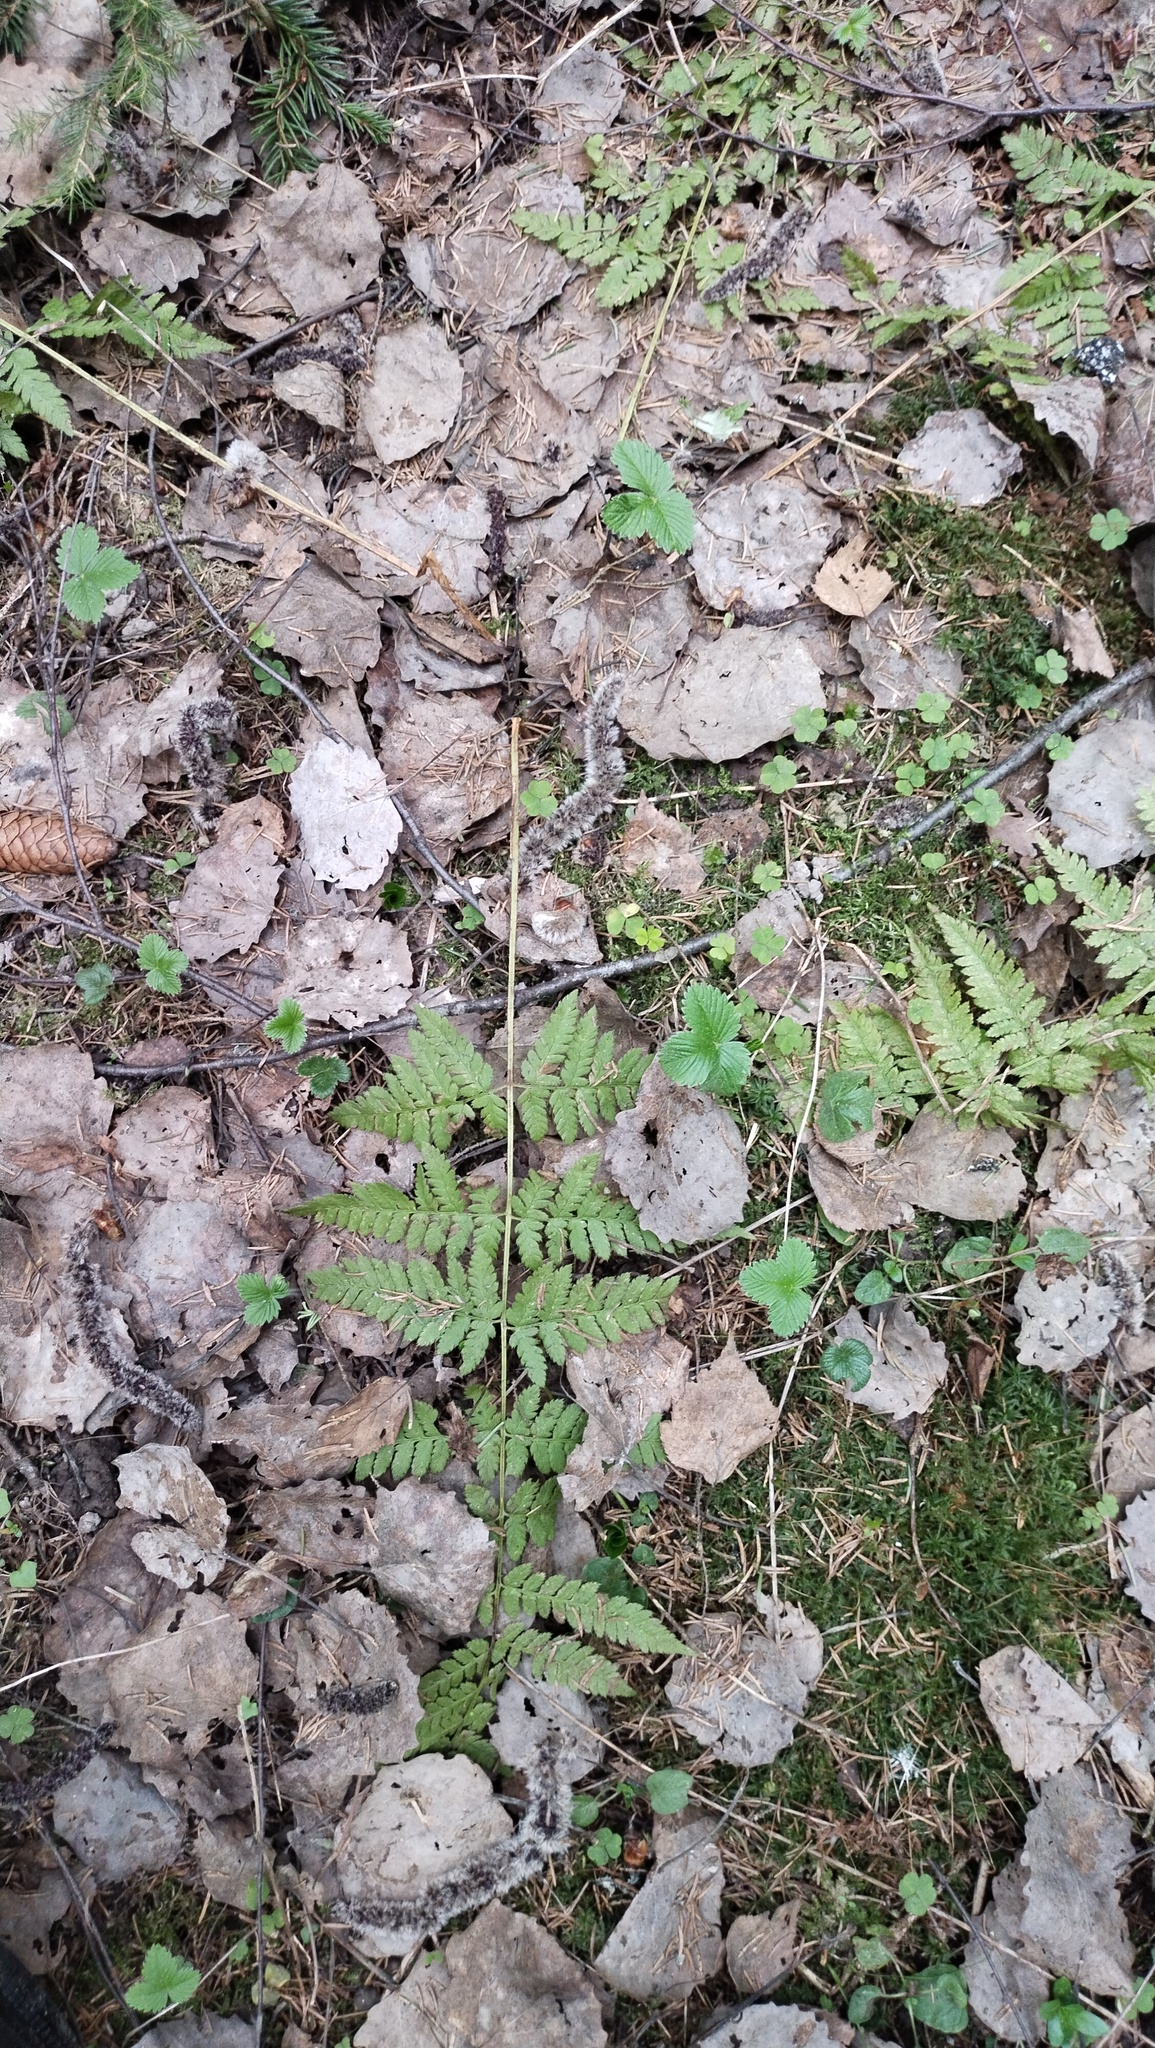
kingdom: Plantae
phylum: Tracheophyta
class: Polypodiopsida
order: Polypodiales
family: Dryopteridaceae
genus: Dryopteris
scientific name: Dryopteris carthusiana
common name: Narrow buckler-fern
